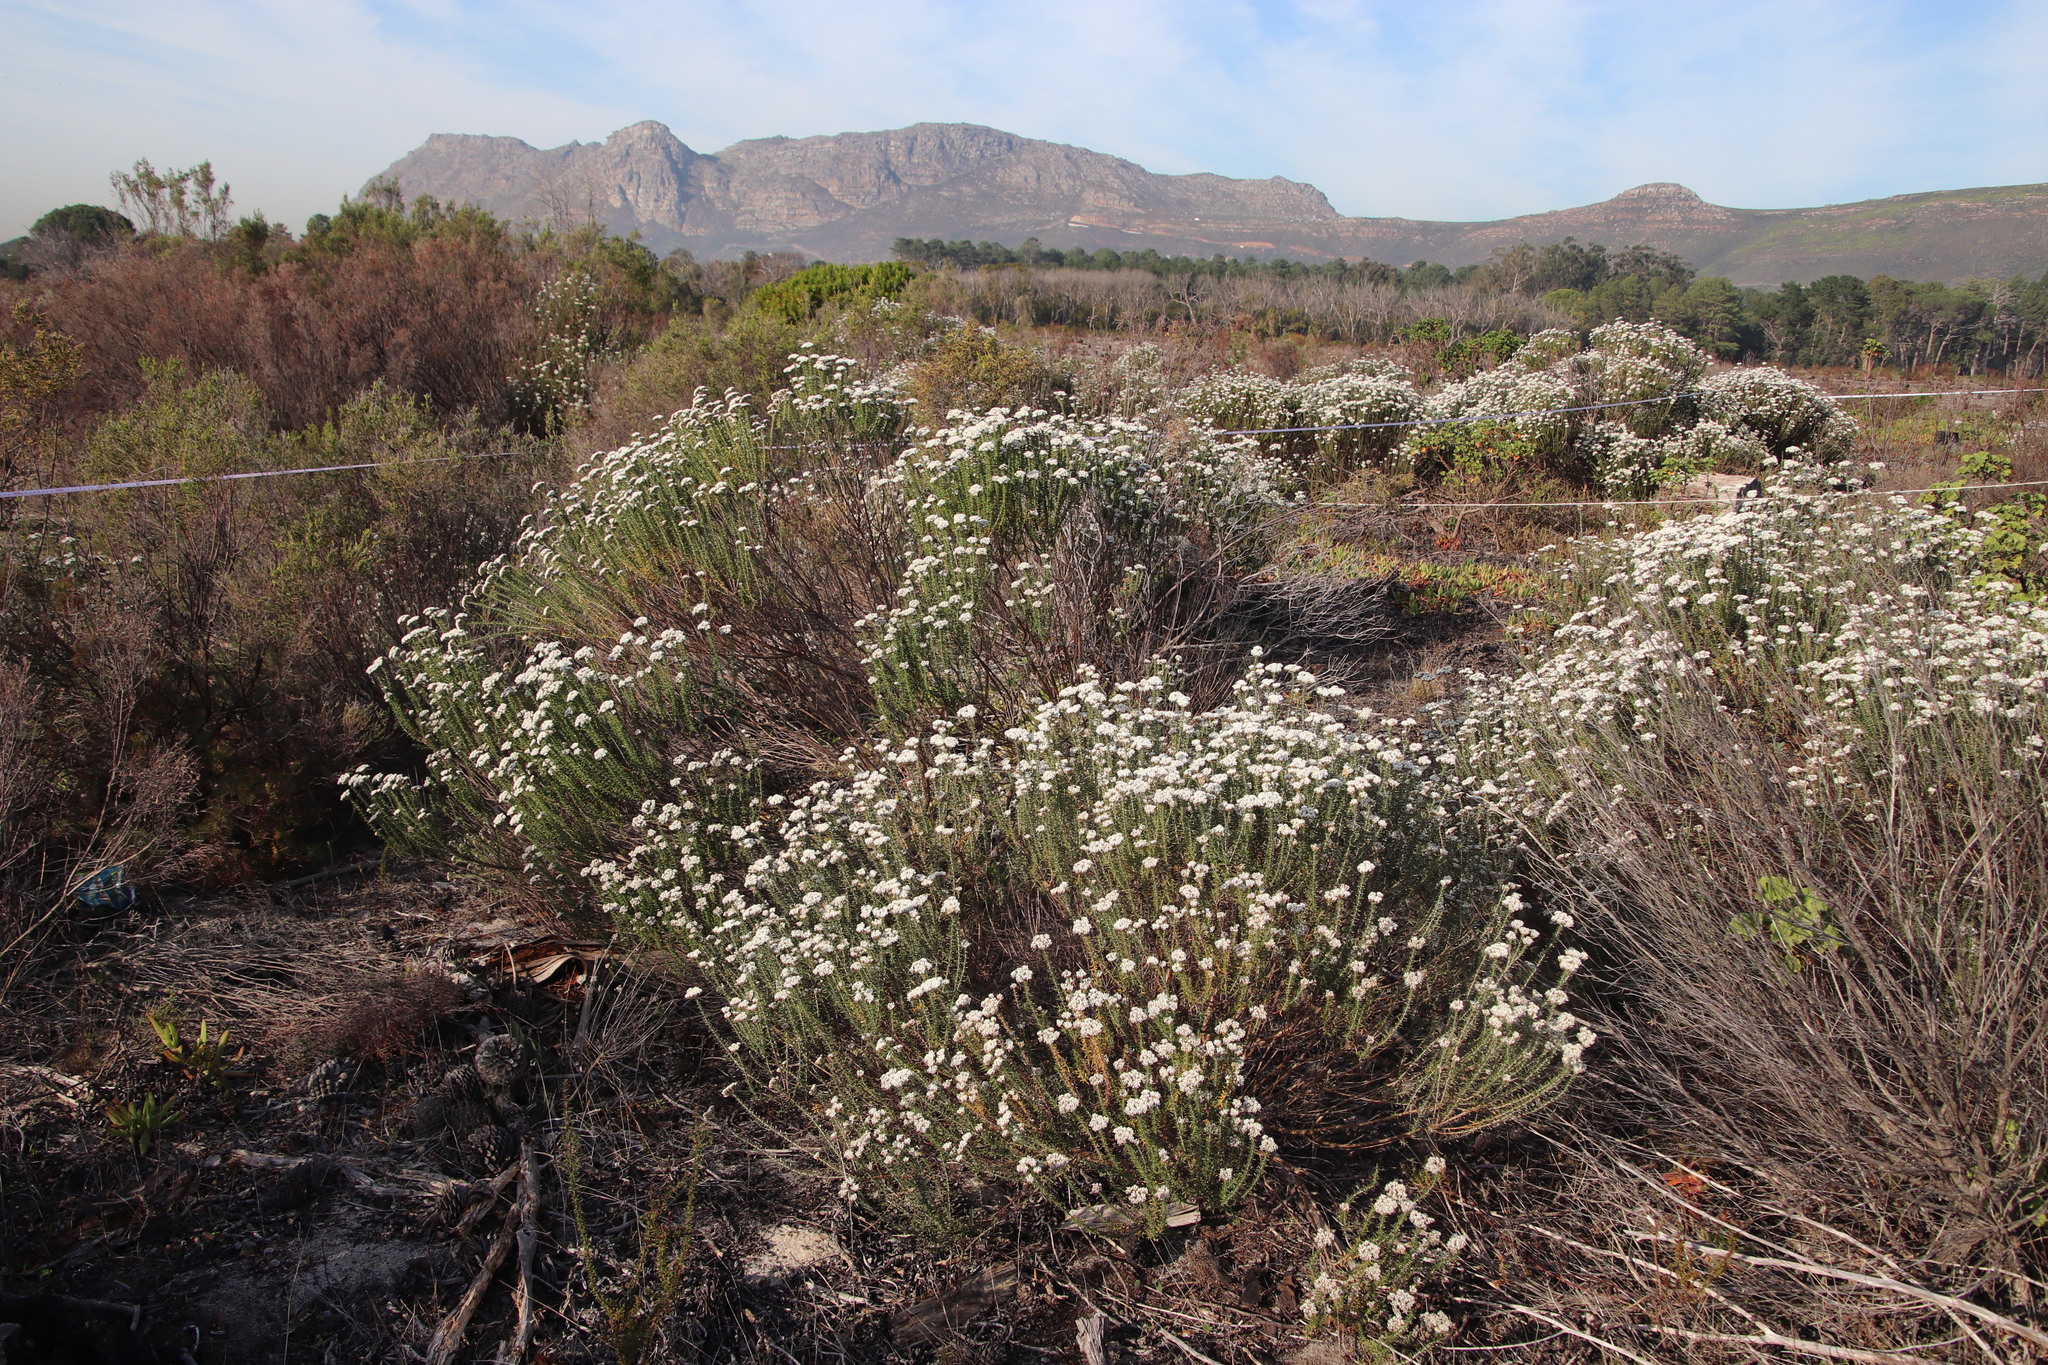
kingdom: Plantae
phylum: Tracheophyta
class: Magnoliopsida
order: Asterales
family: Asteraceae
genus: Metalasia
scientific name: Metalasia densa
